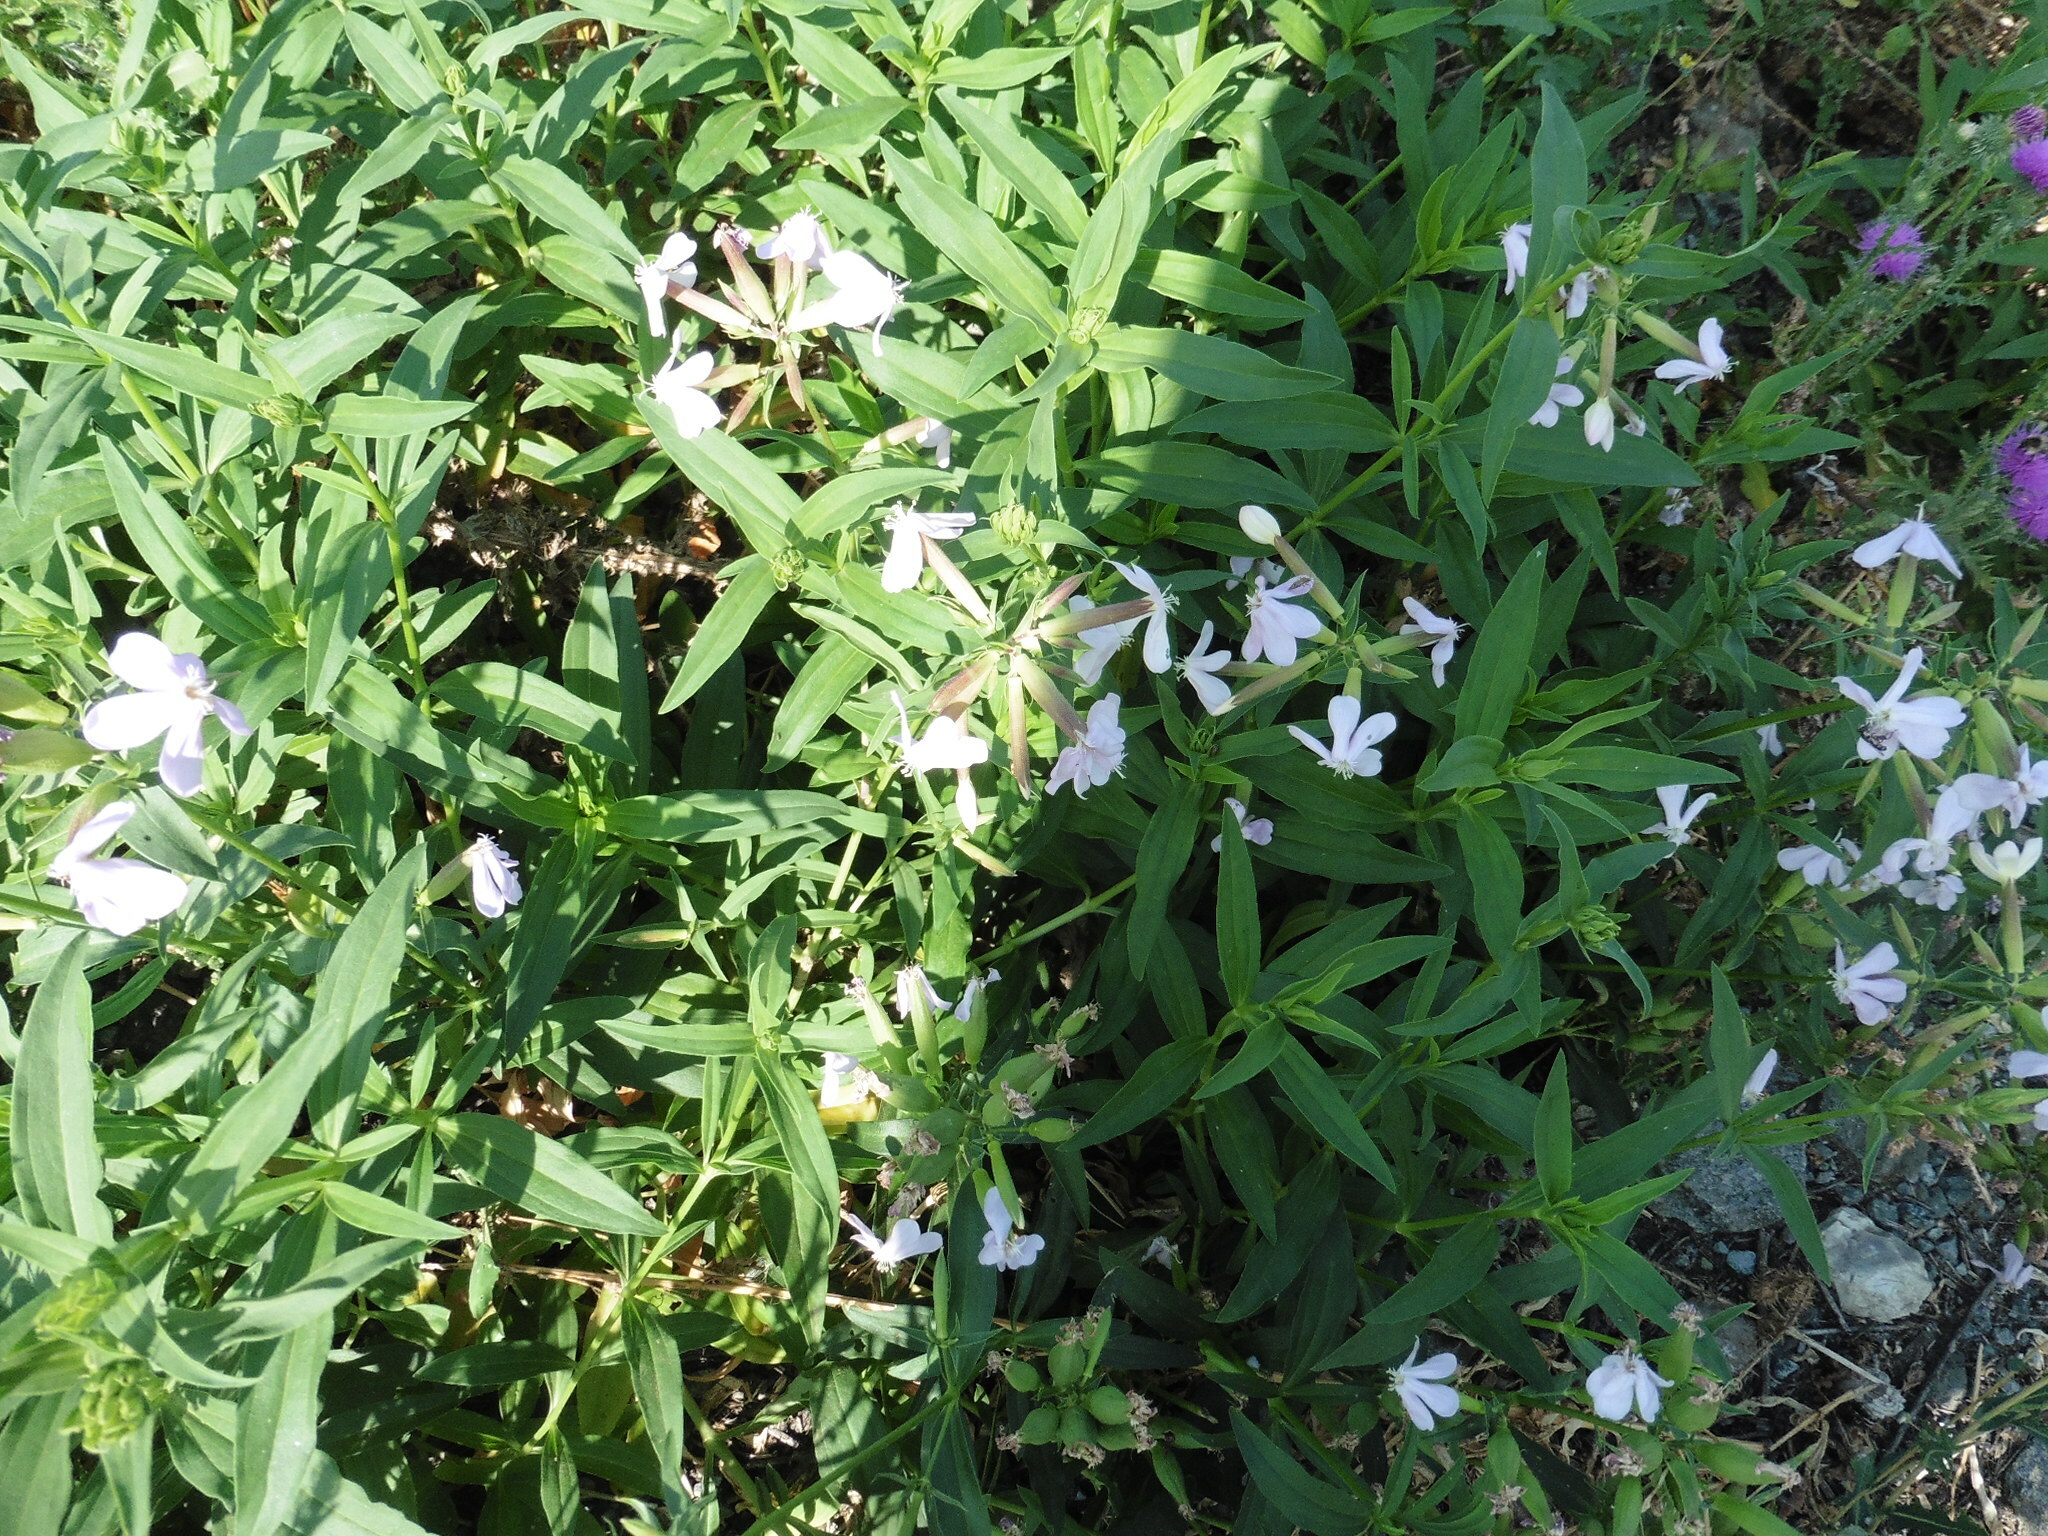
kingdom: Plantae
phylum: Tracheophyta
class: Magnoliopsida
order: Caryophyllales
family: Caryophyllaceae
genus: Saponaria
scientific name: Saponaria officinalis
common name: Soapwort
